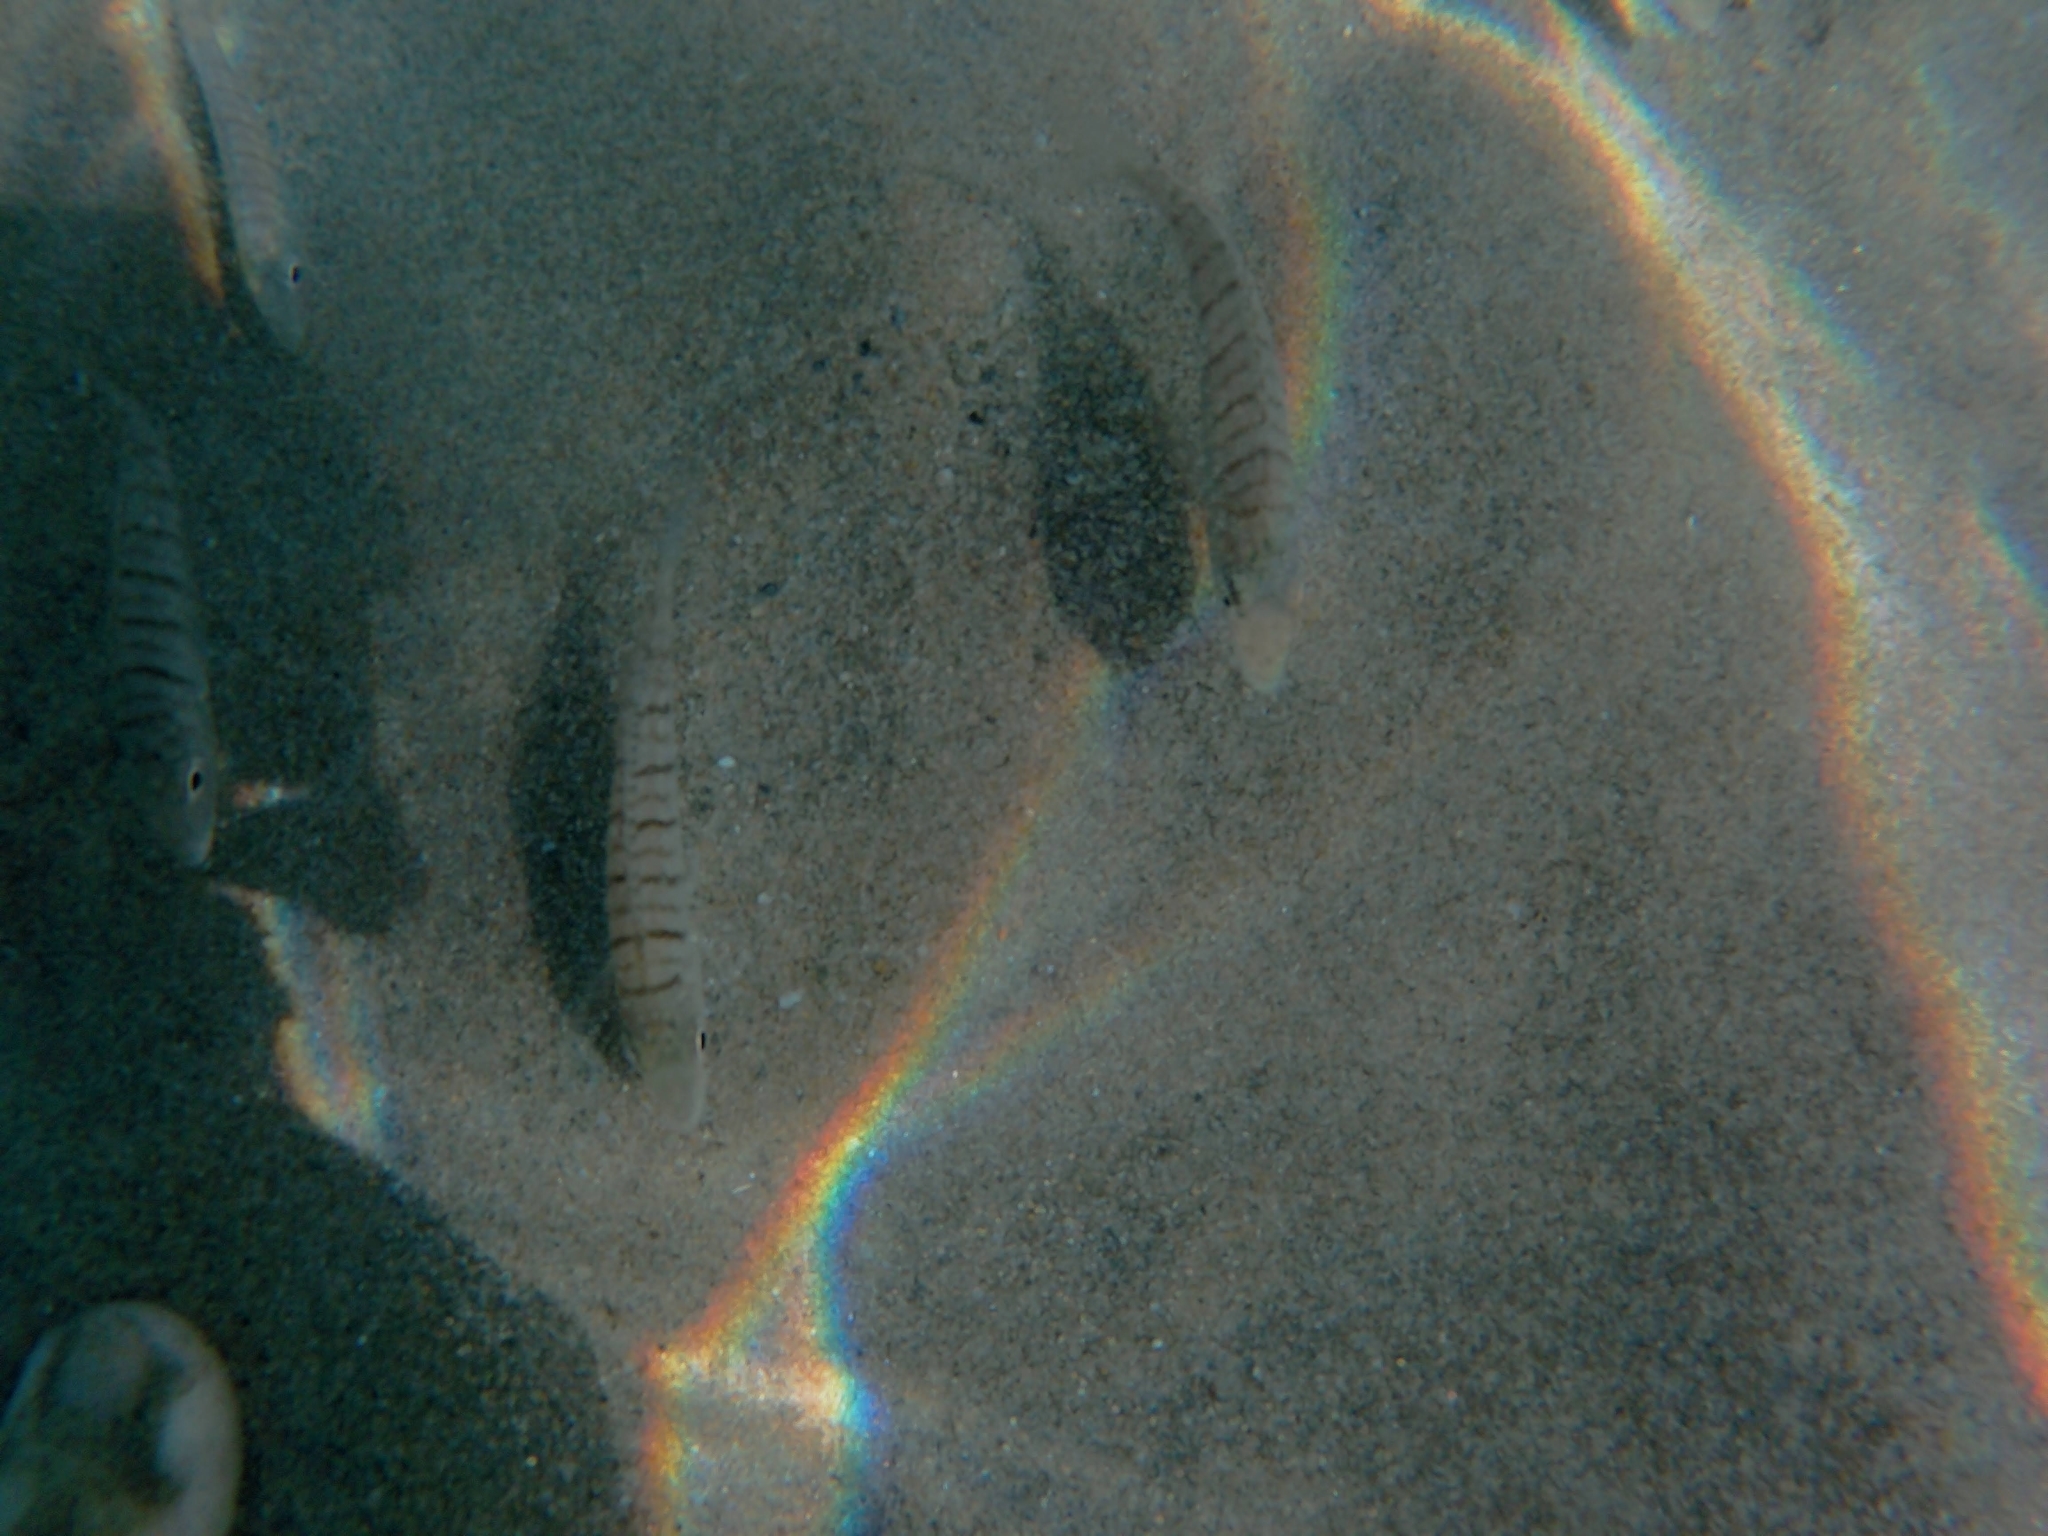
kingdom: Animalia
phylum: Chordata
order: Perciformes
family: Sparidae
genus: Lithognathus
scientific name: Lithognathus mormyrus
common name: Sand steenbras
